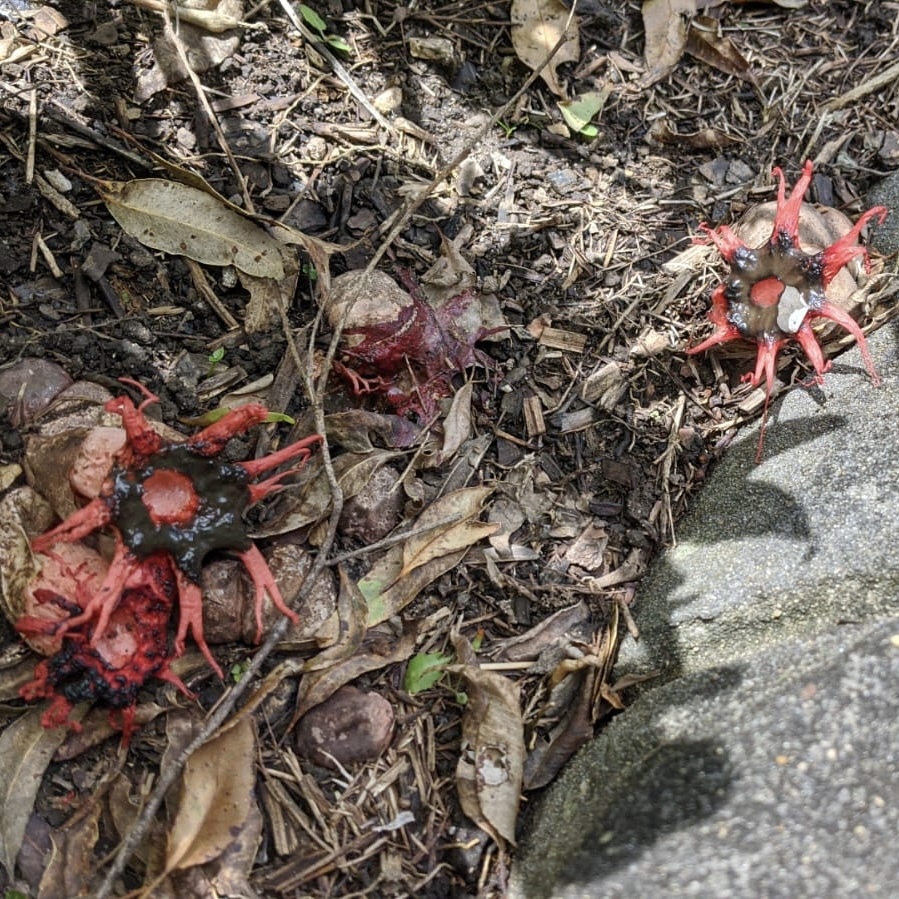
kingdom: Fungi
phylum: Basidiomycota
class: Agaricomycetes
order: Phallales
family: Phallaceae
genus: Aseroe
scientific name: Aseroe rubra
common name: Starfish fungus
